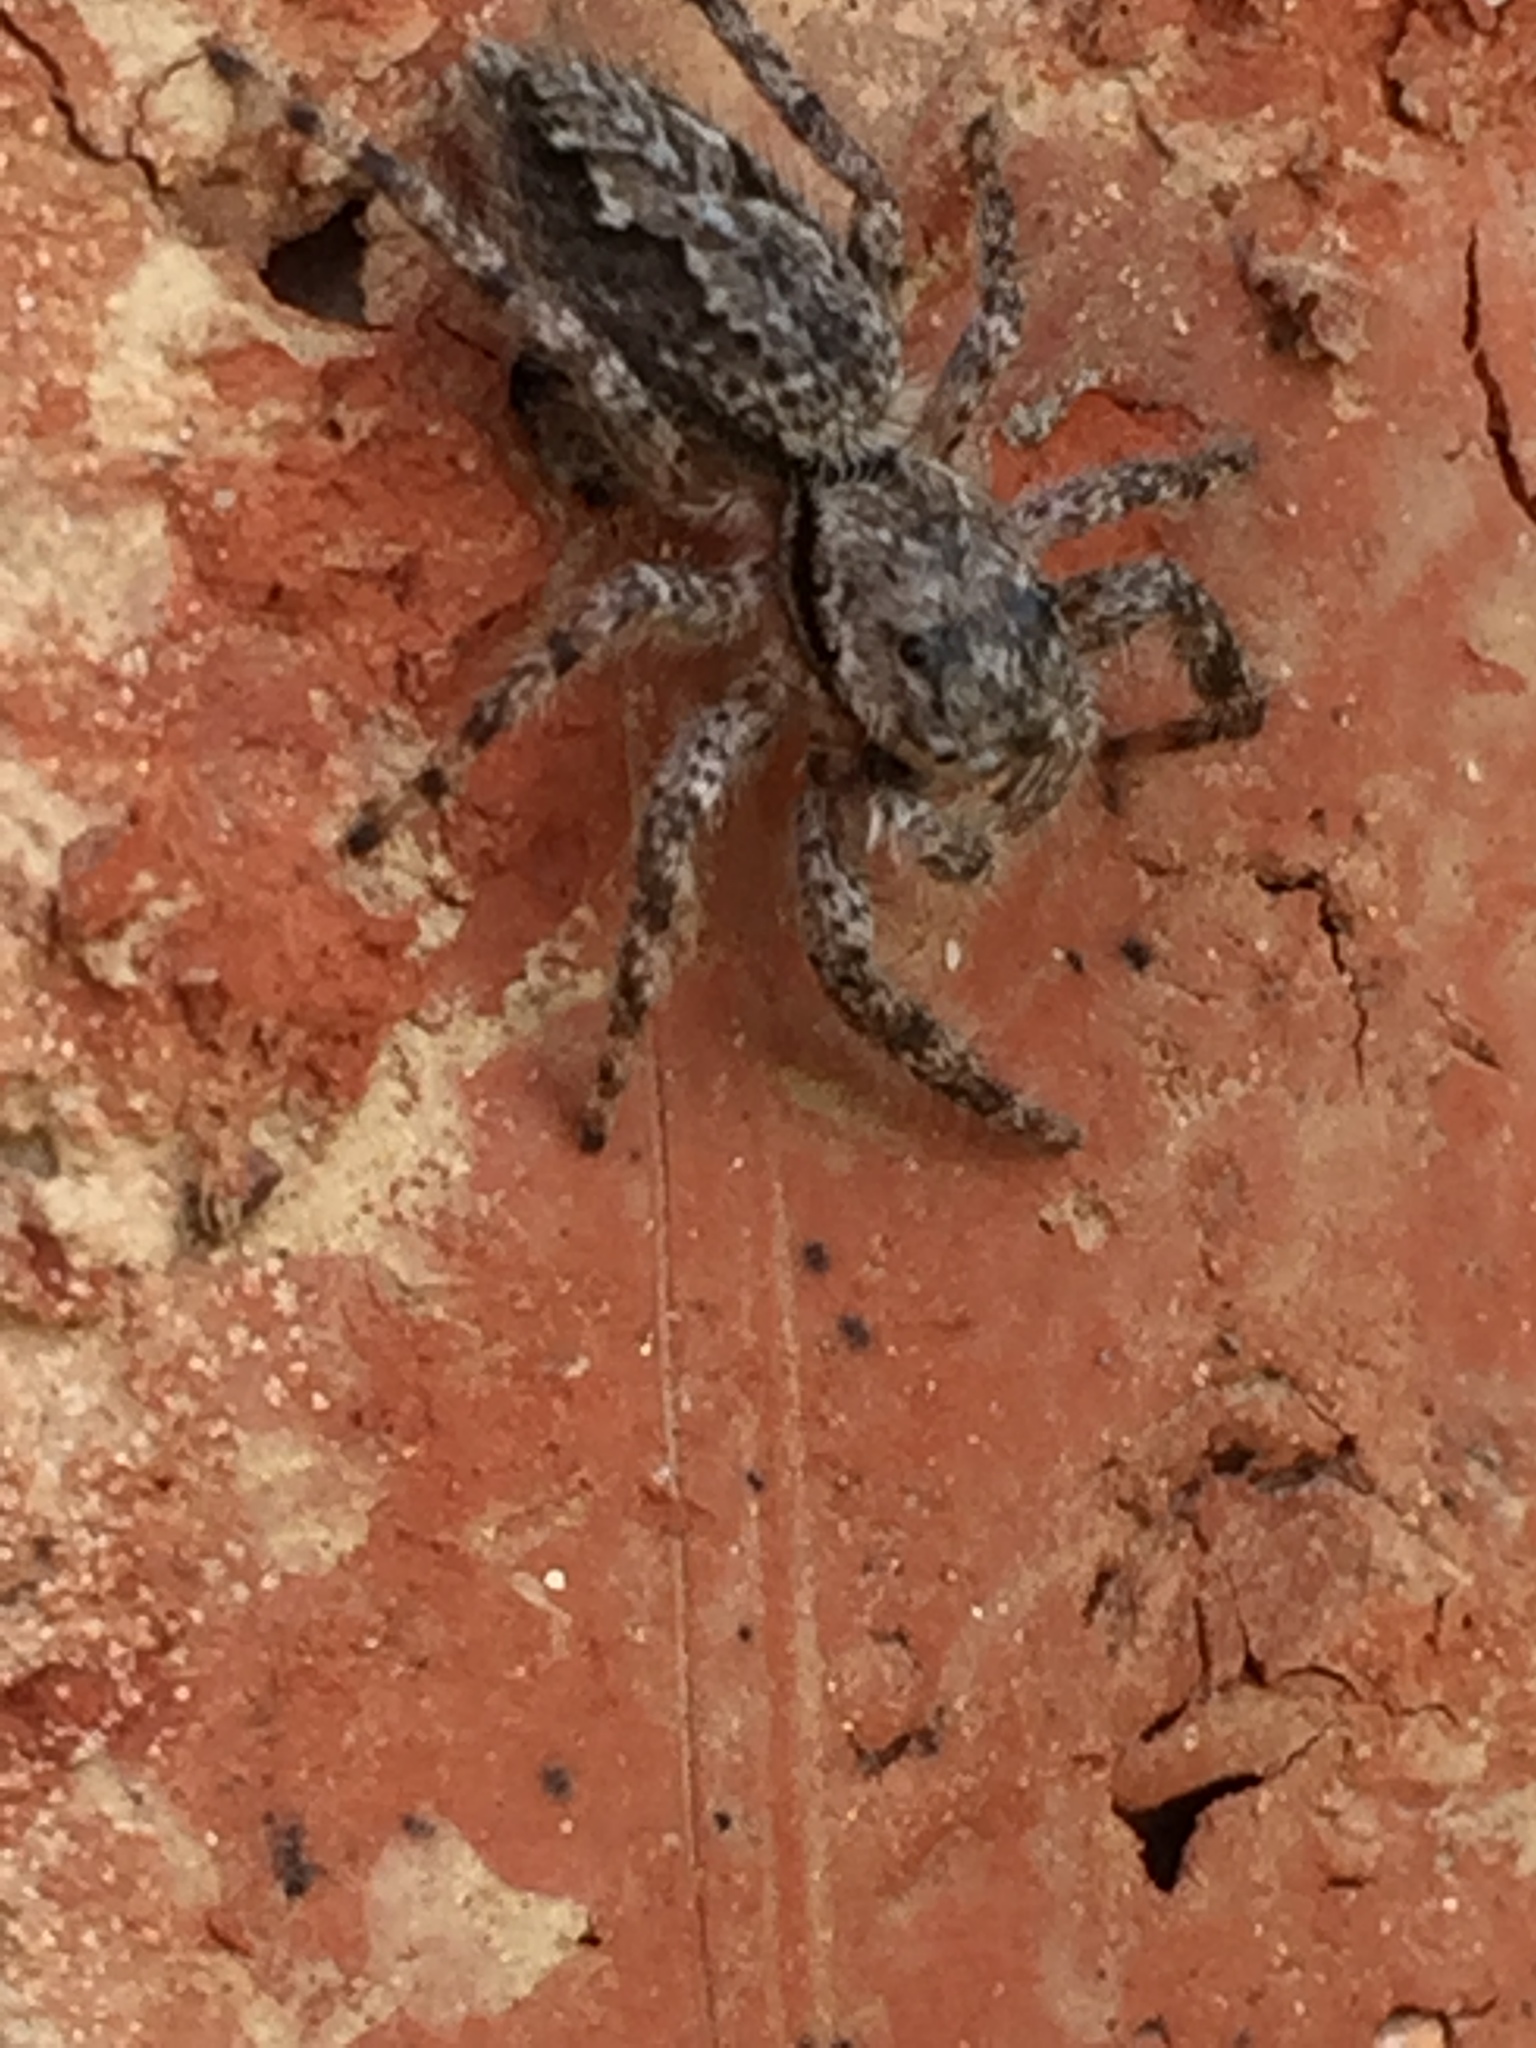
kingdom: Animalia
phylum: Arthropoda
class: Arachnida
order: Araneae
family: Salticidae
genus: Platycryptus
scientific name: Platycryptus undatus
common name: Tan jumping spider
